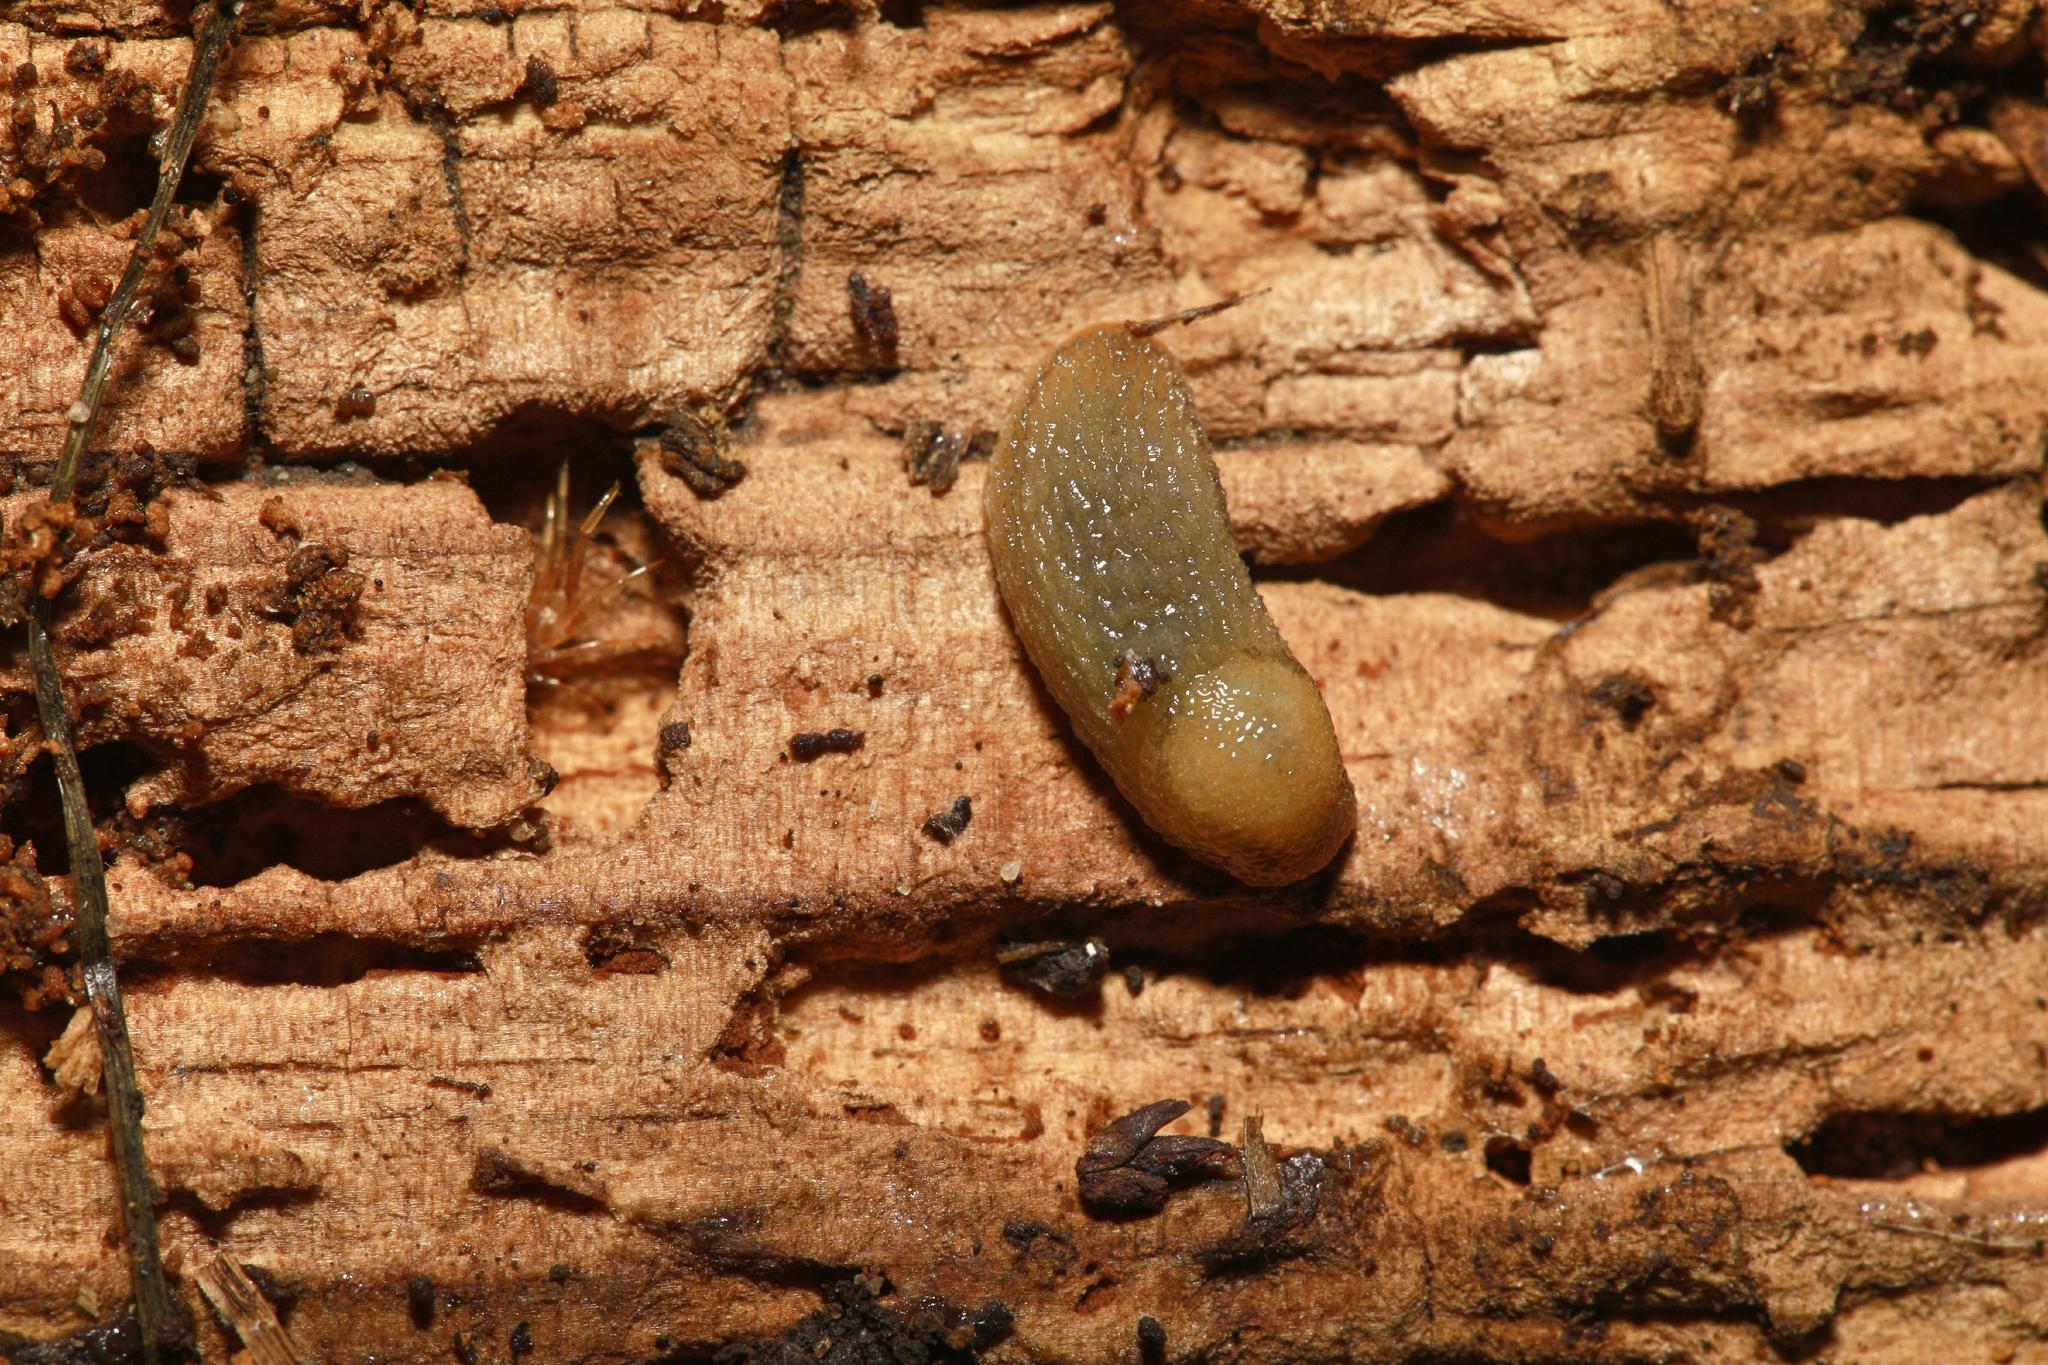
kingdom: Animalia
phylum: Mollusca
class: Gastropoda
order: Stylommatophora
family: Arionidae
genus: Arion
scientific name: Arion intermedius
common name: Hedgehog slug
